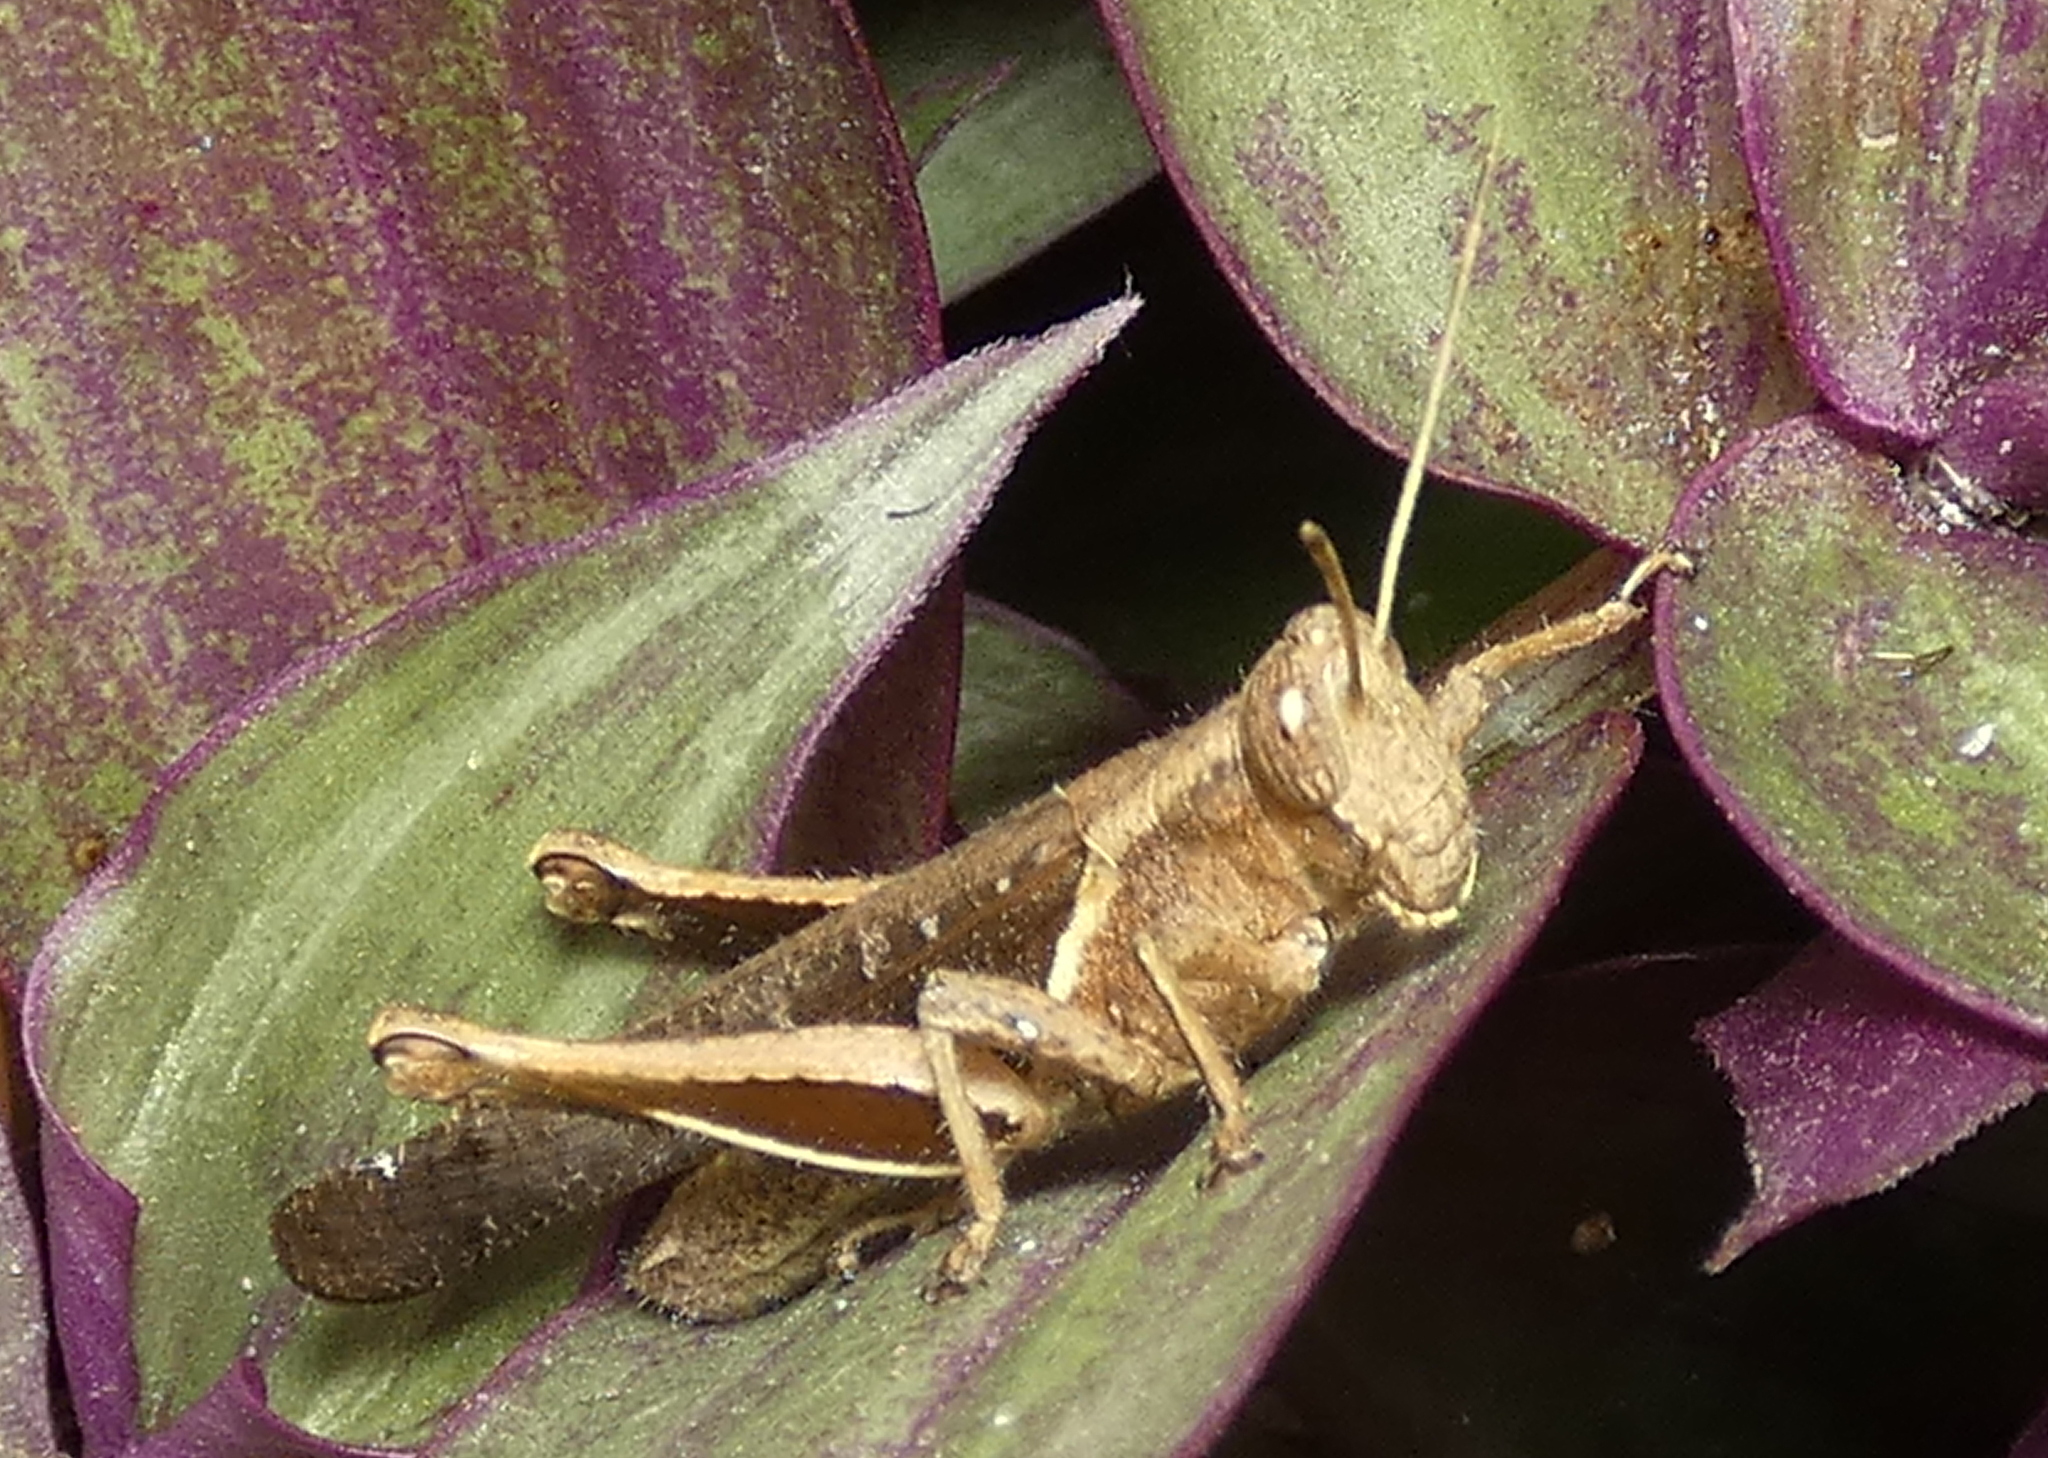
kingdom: Animalia
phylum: Arthropoda
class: Insecta
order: Orthoptera
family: Acrididae
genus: Abracris
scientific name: Abracris flavolineata
